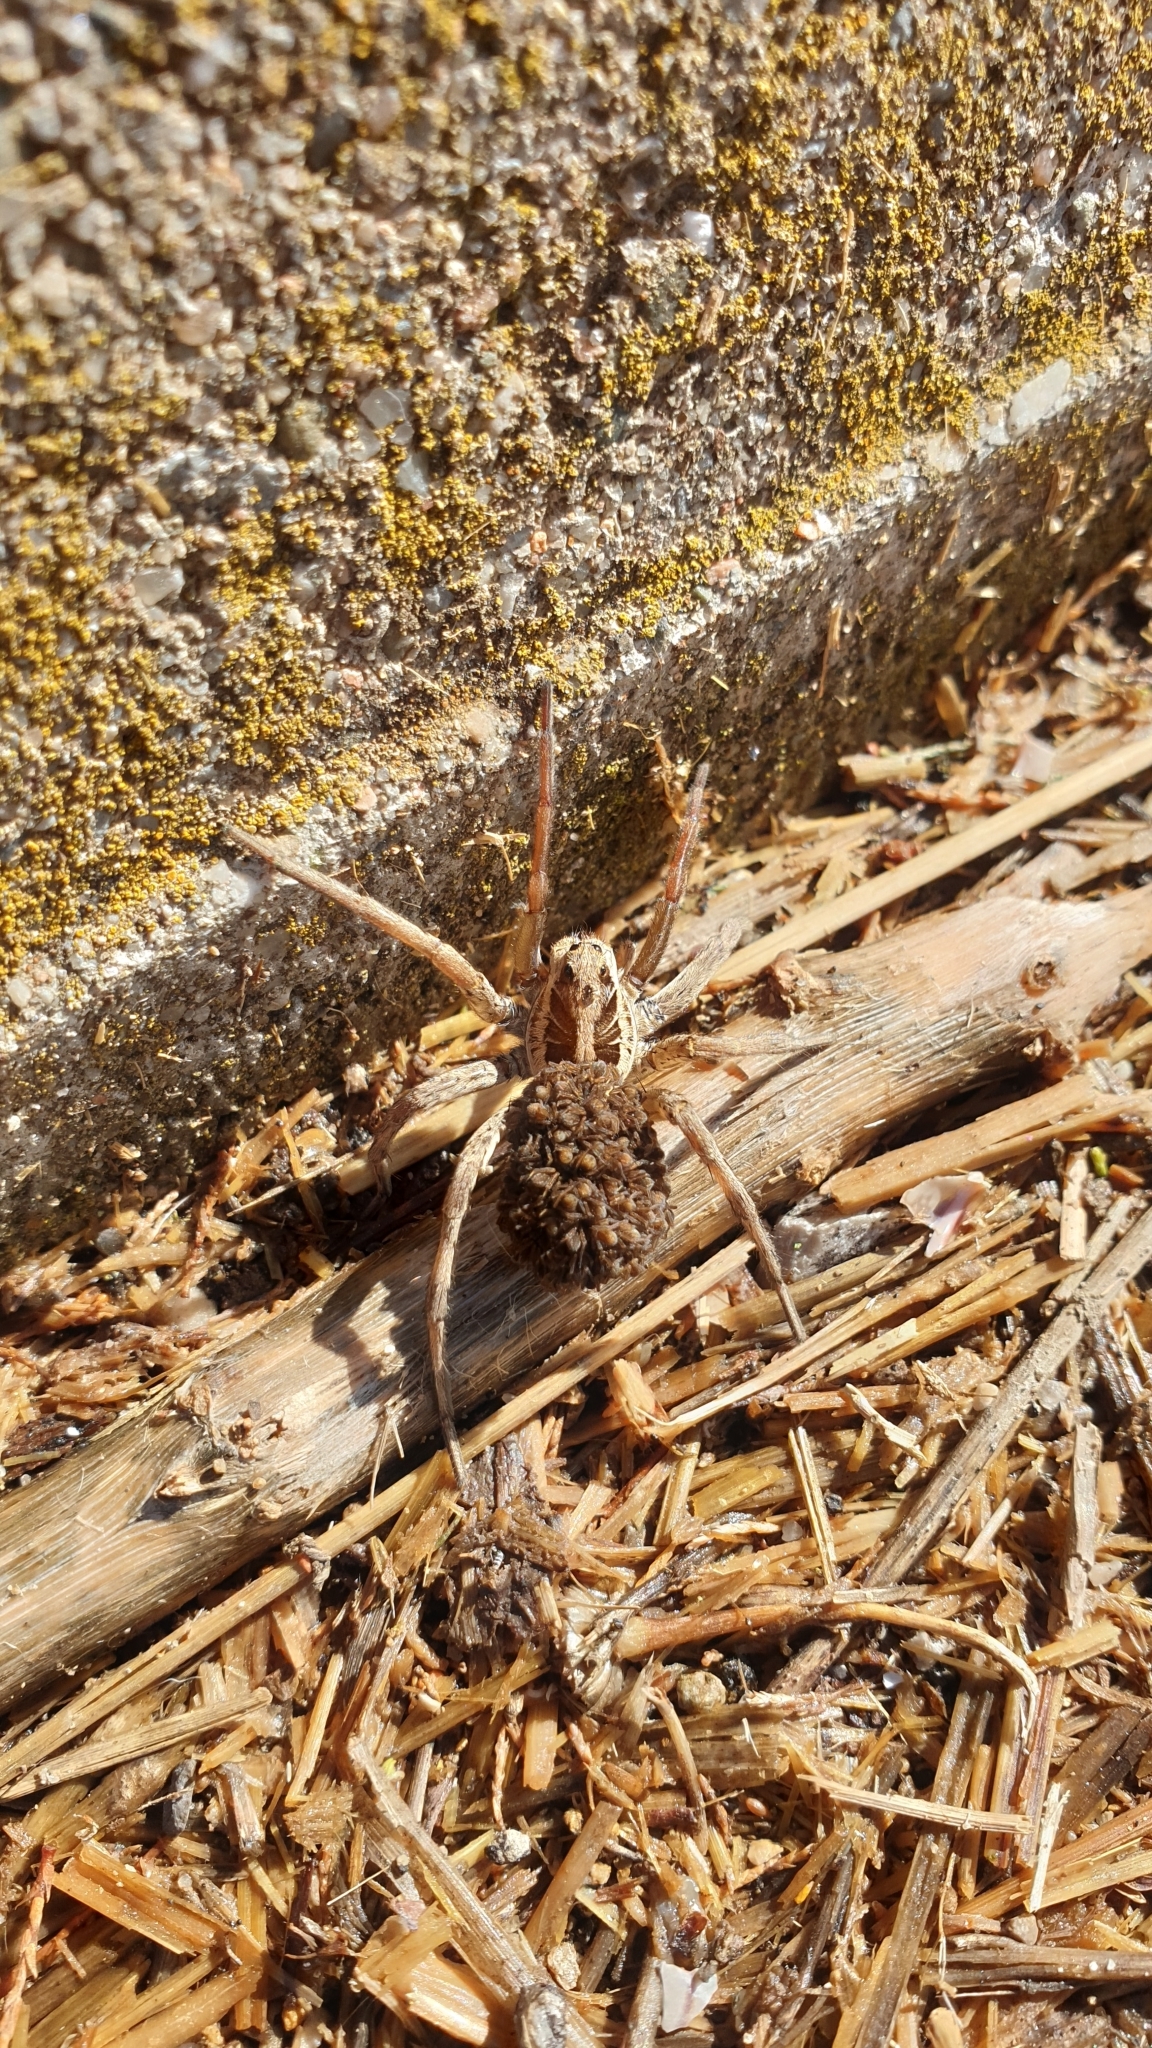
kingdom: Animalia
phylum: Arthropoda
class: Arachnida
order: Araneae
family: Lycosidae
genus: Hogna
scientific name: Hogna radiata
